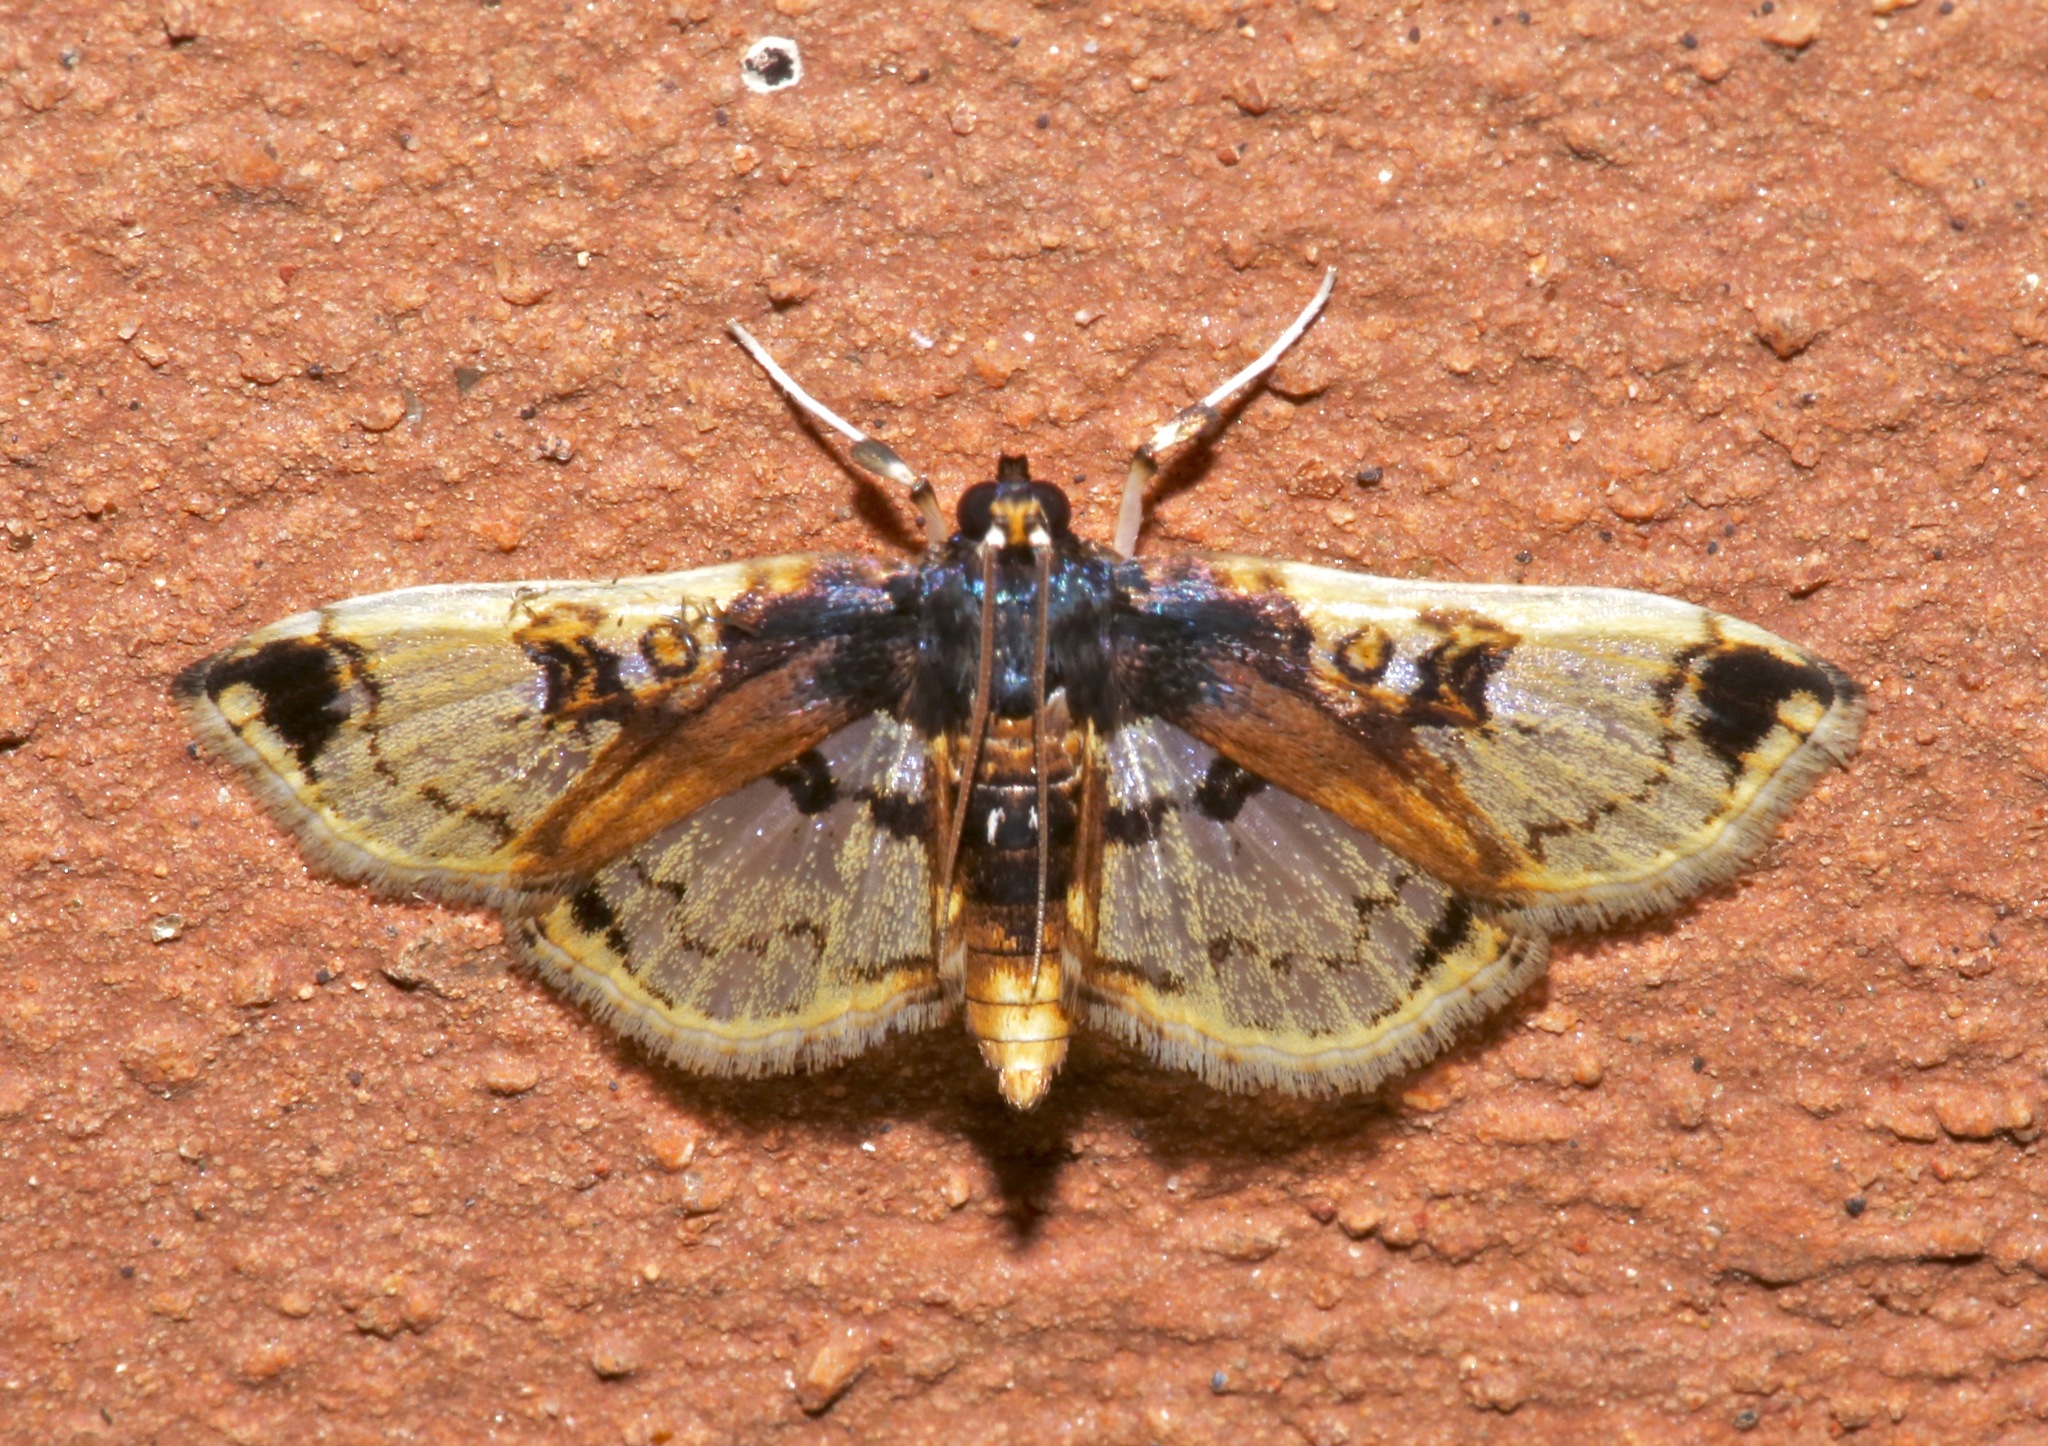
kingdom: Animalia
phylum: Arthropoda
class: Insecta
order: Lepidoptera
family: Crambidae
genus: Compacta
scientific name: Compacta capitalis
